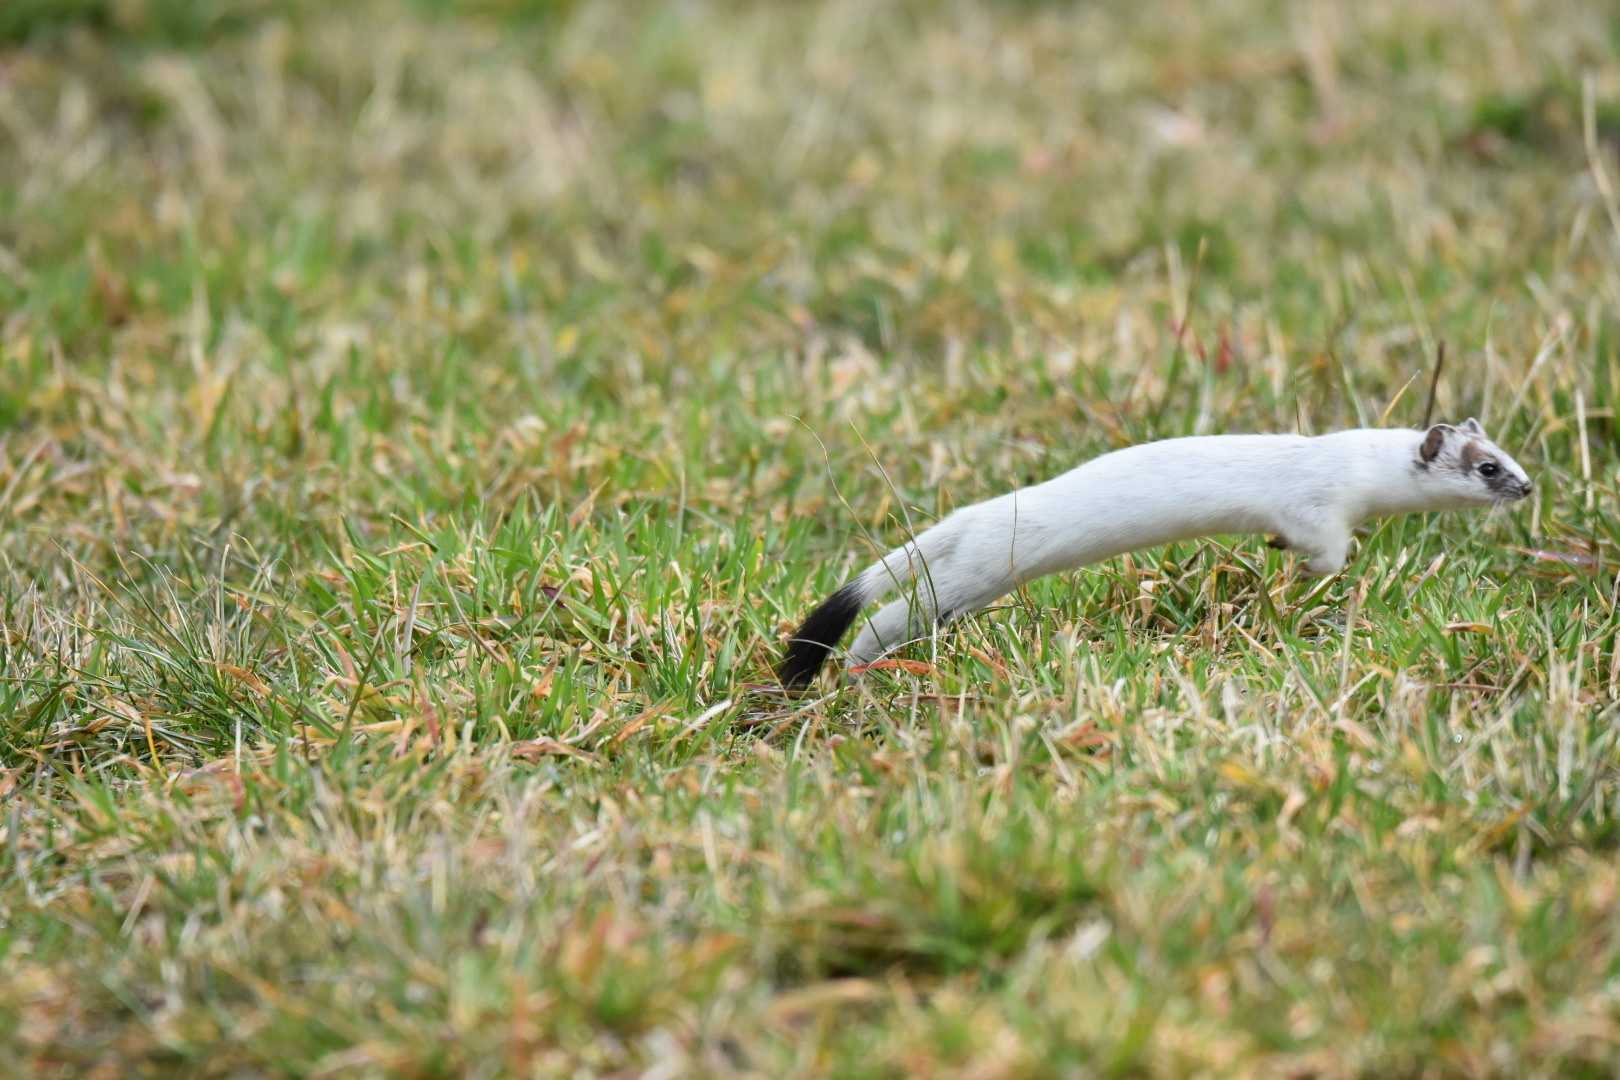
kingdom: Animalia
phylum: Chordata
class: Mammalia
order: Carnivora
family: Mustelidae
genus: Mustela
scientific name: Mustela erminea
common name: Stoat
